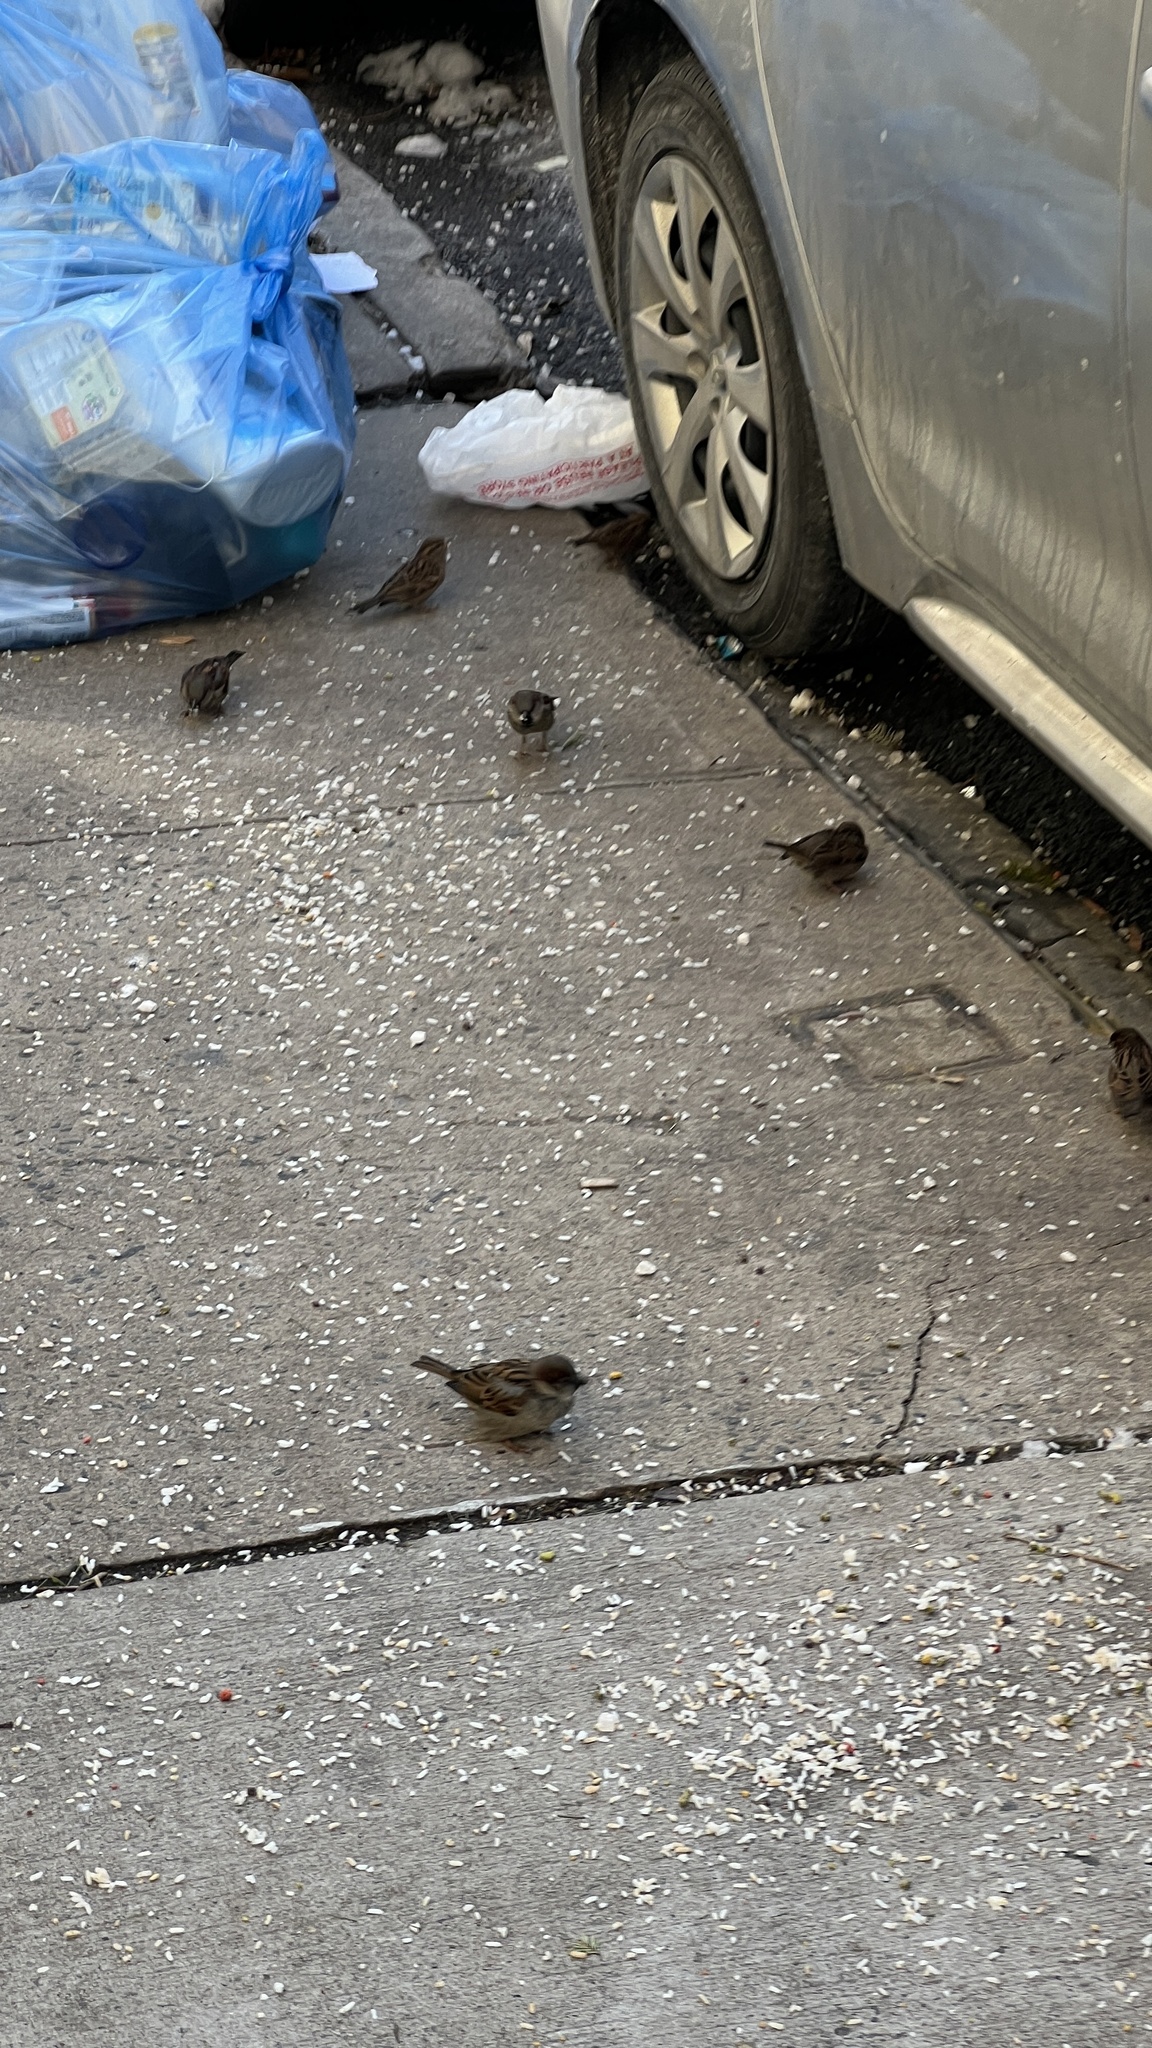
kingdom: Animalia
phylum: Chordata
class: Aves
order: Passeriformes
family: Passeridae
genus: Passer
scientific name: Passer domesticus
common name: House sparrow
